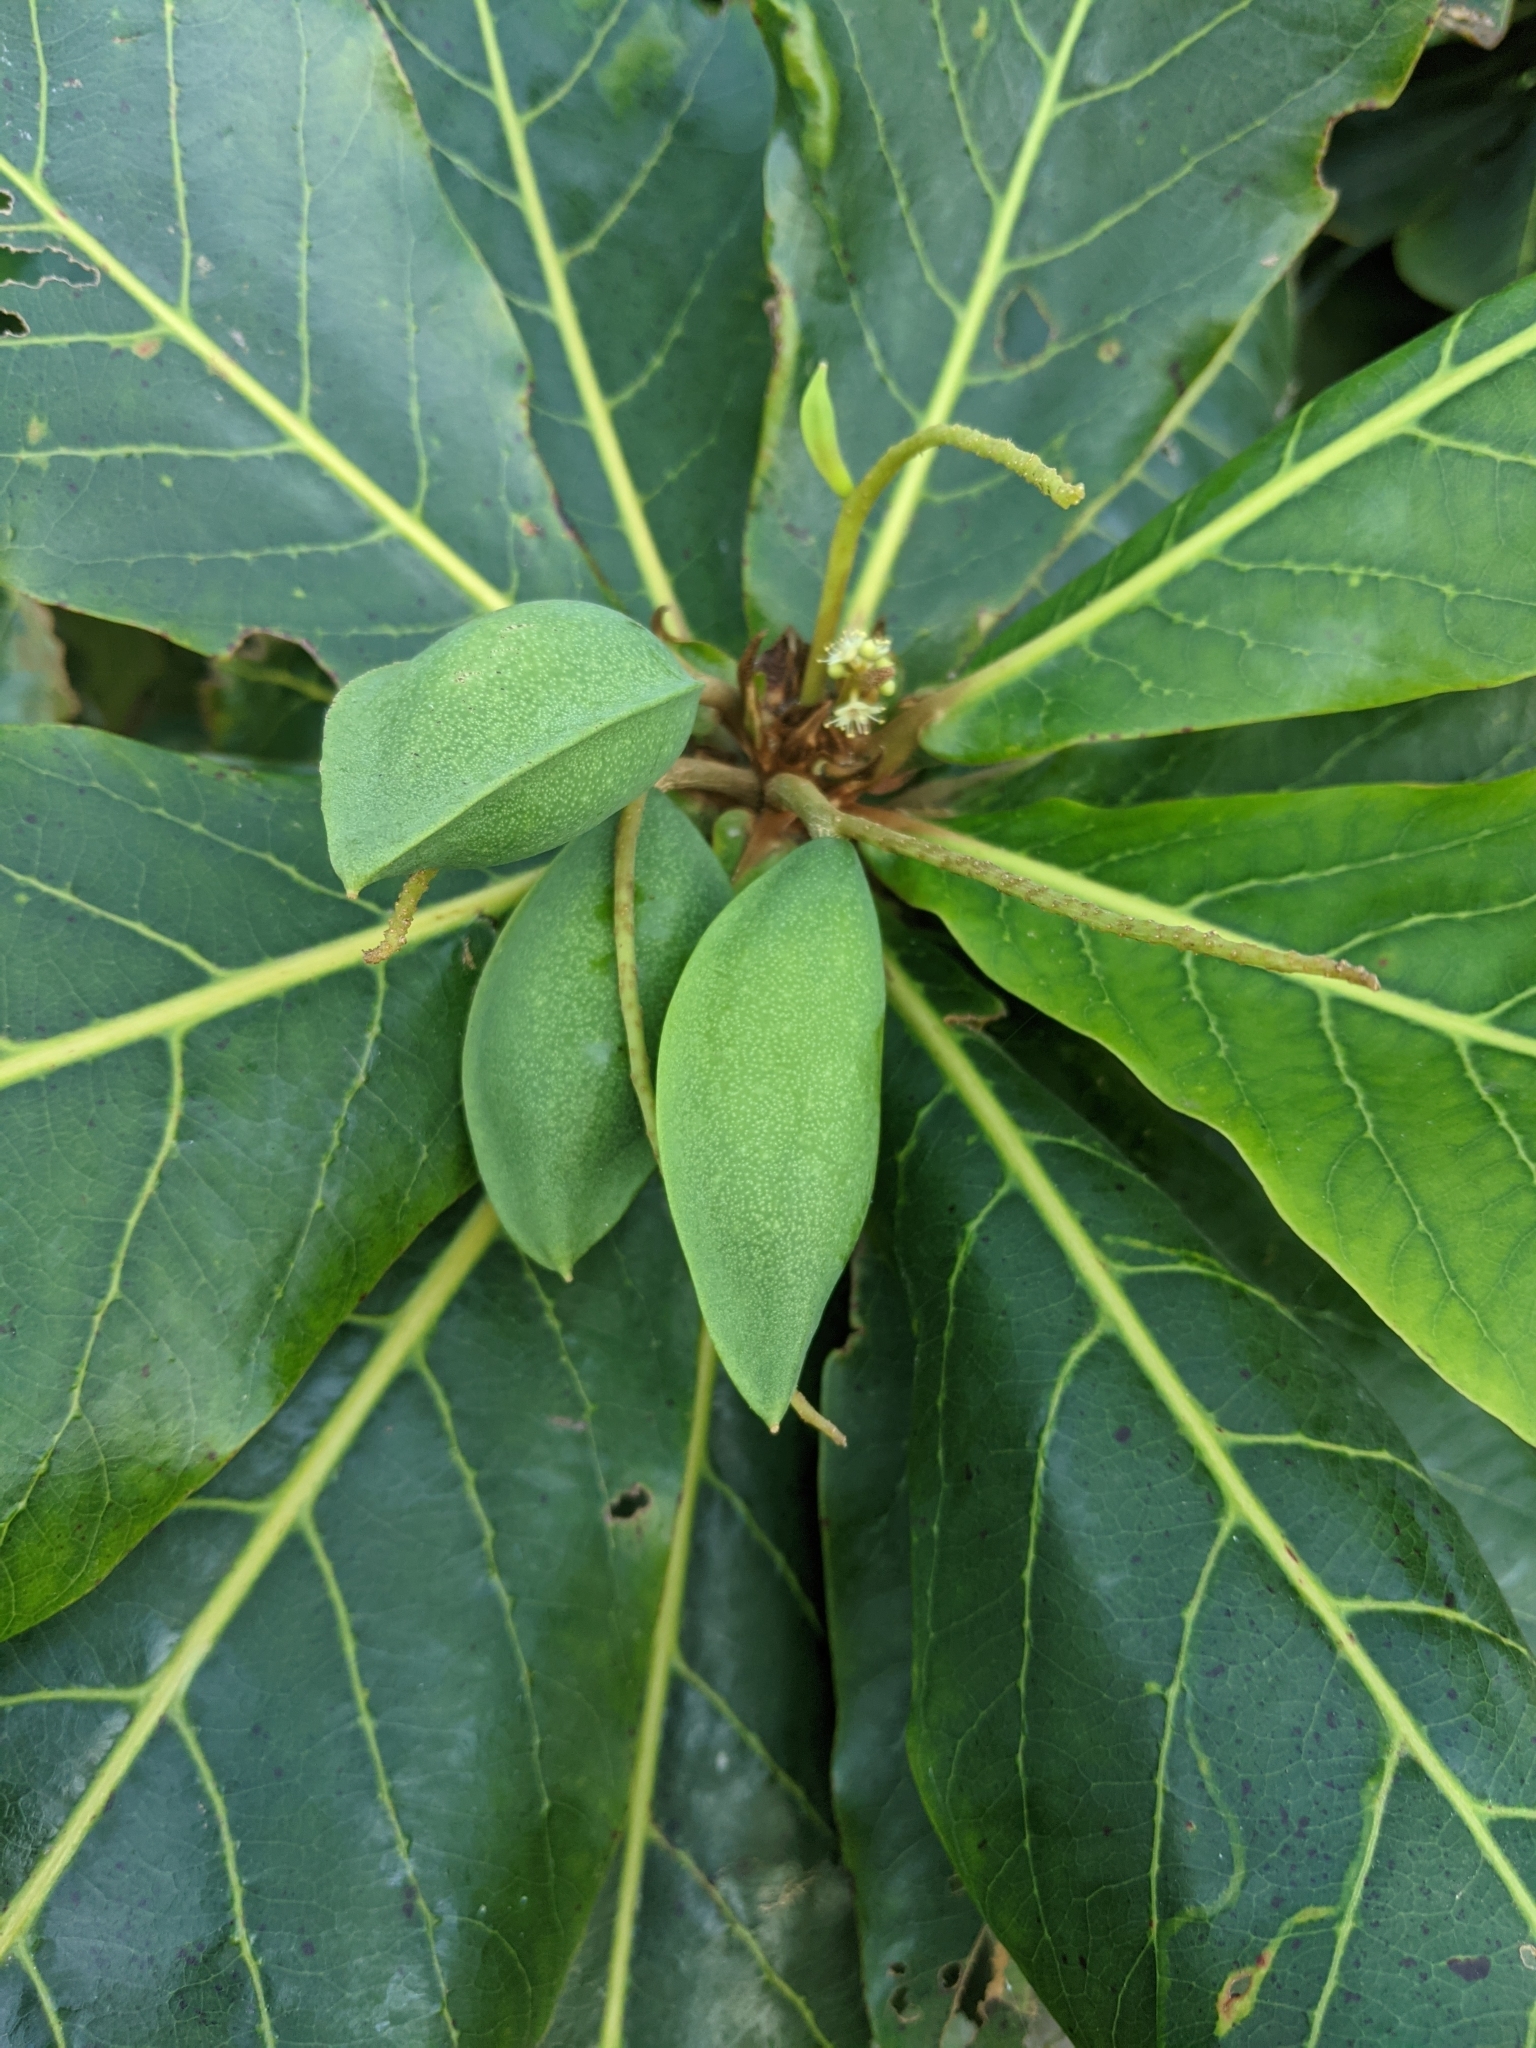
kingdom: Plantae
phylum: Tracheophyta
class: Magnoliopsida
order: Myrtales
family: Combretaceae
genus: Terminalia
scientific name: Terminalia catappa
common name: Tropical almond
